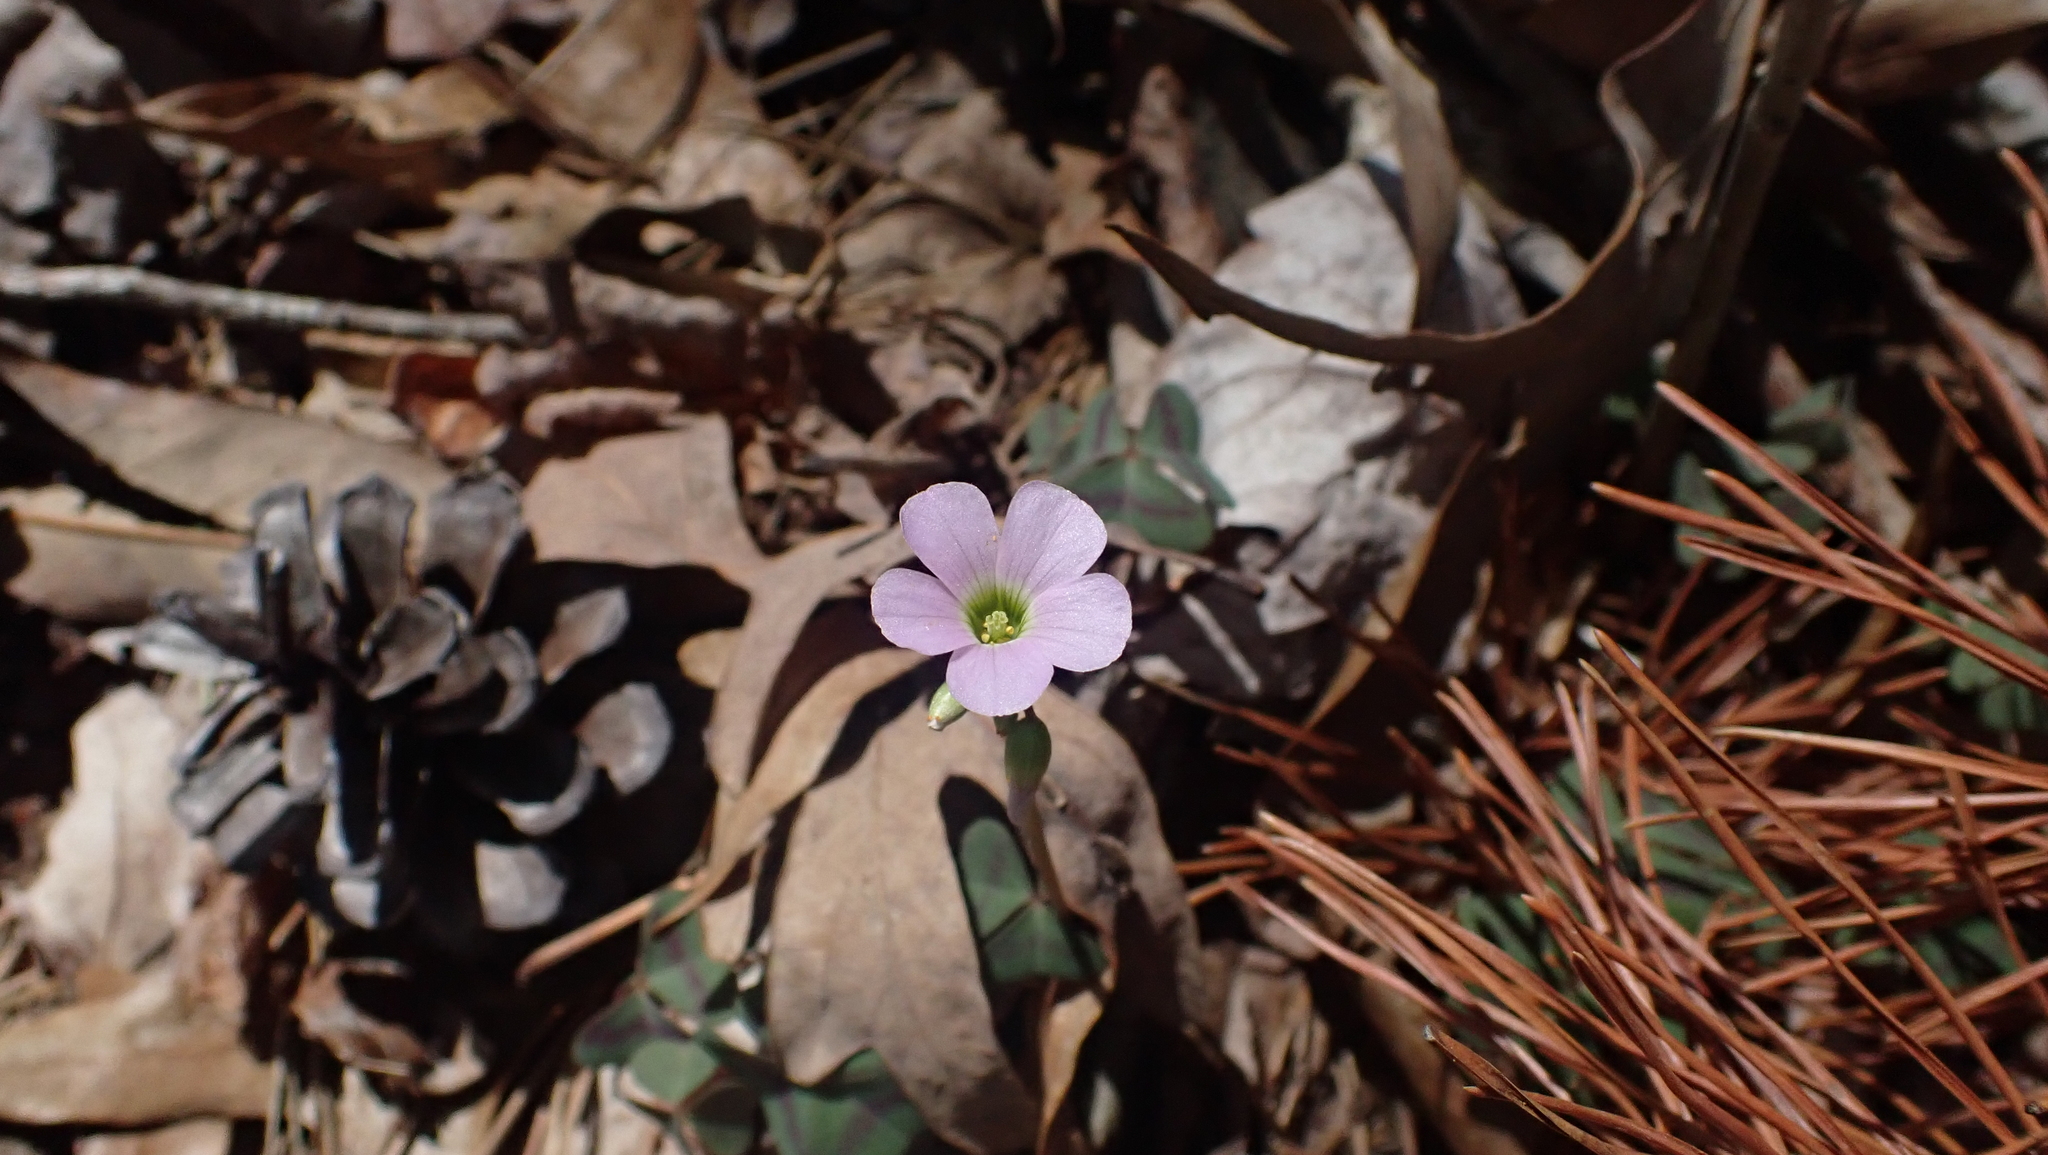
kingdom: Plantae
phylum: Tracheophyta
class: Magnoliopsida
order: Oxalidales
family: Oxalidaceae
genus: Oxalis
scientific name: Oxalis violacea
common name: Violet wood-sorrel
